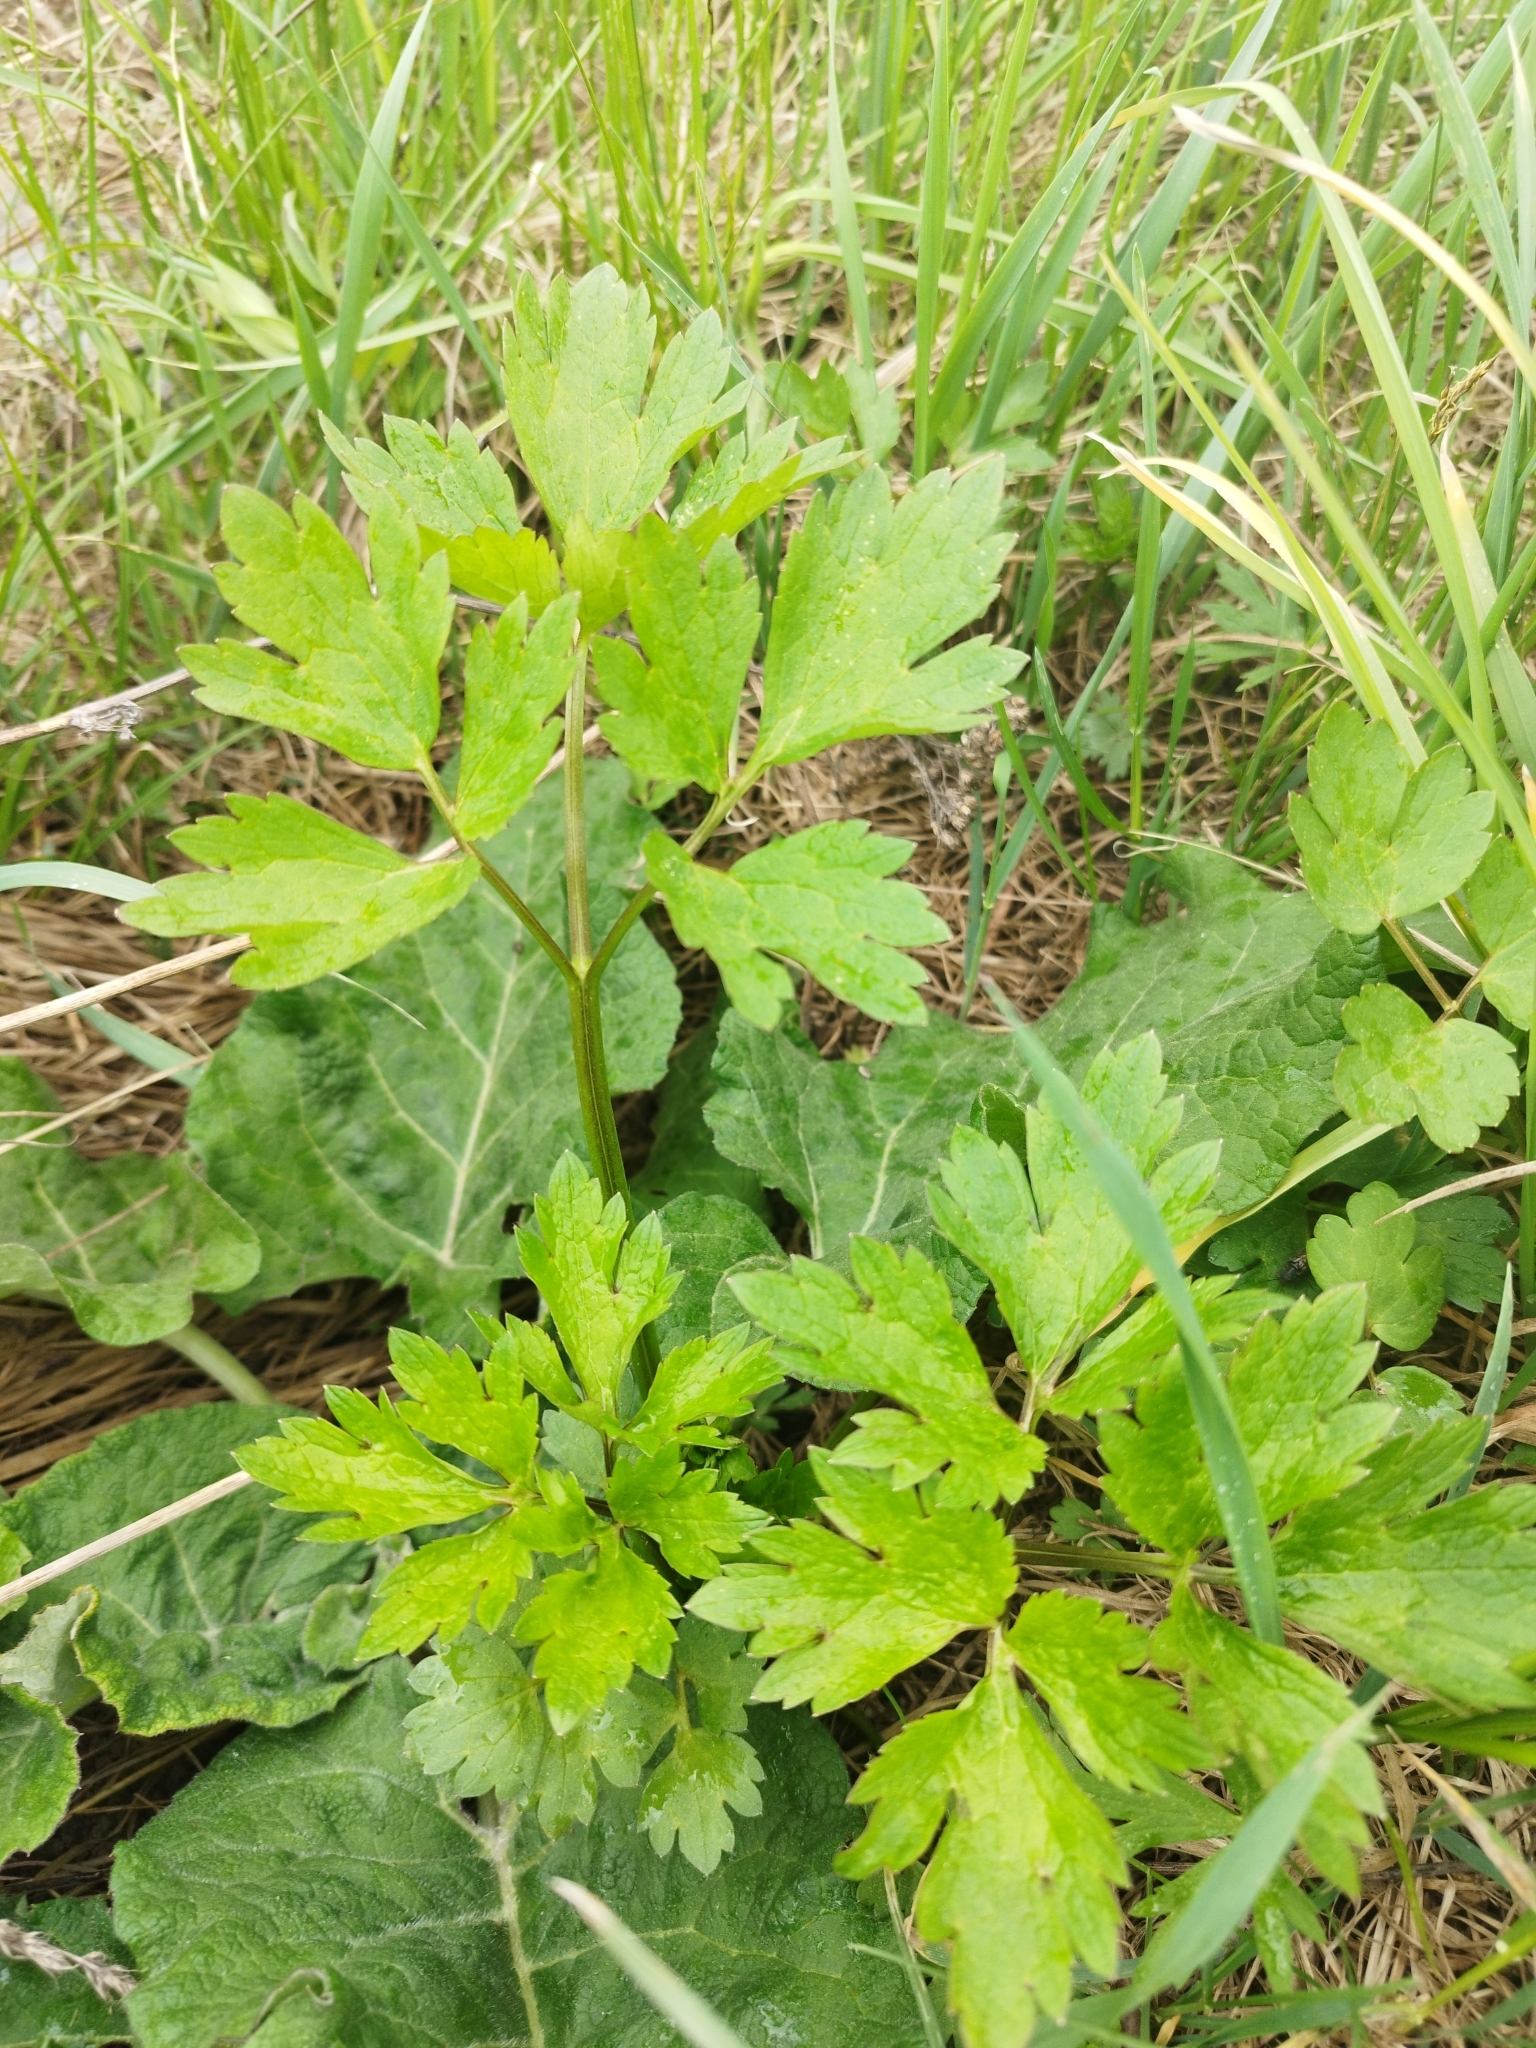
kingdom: Plantae
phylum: Tracheophyta
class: Magnoliopsida
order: Ranunculales
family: Ranunculaceae
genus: Ranunculus
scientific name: Ranunculus repens
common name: Creeping buttercup
